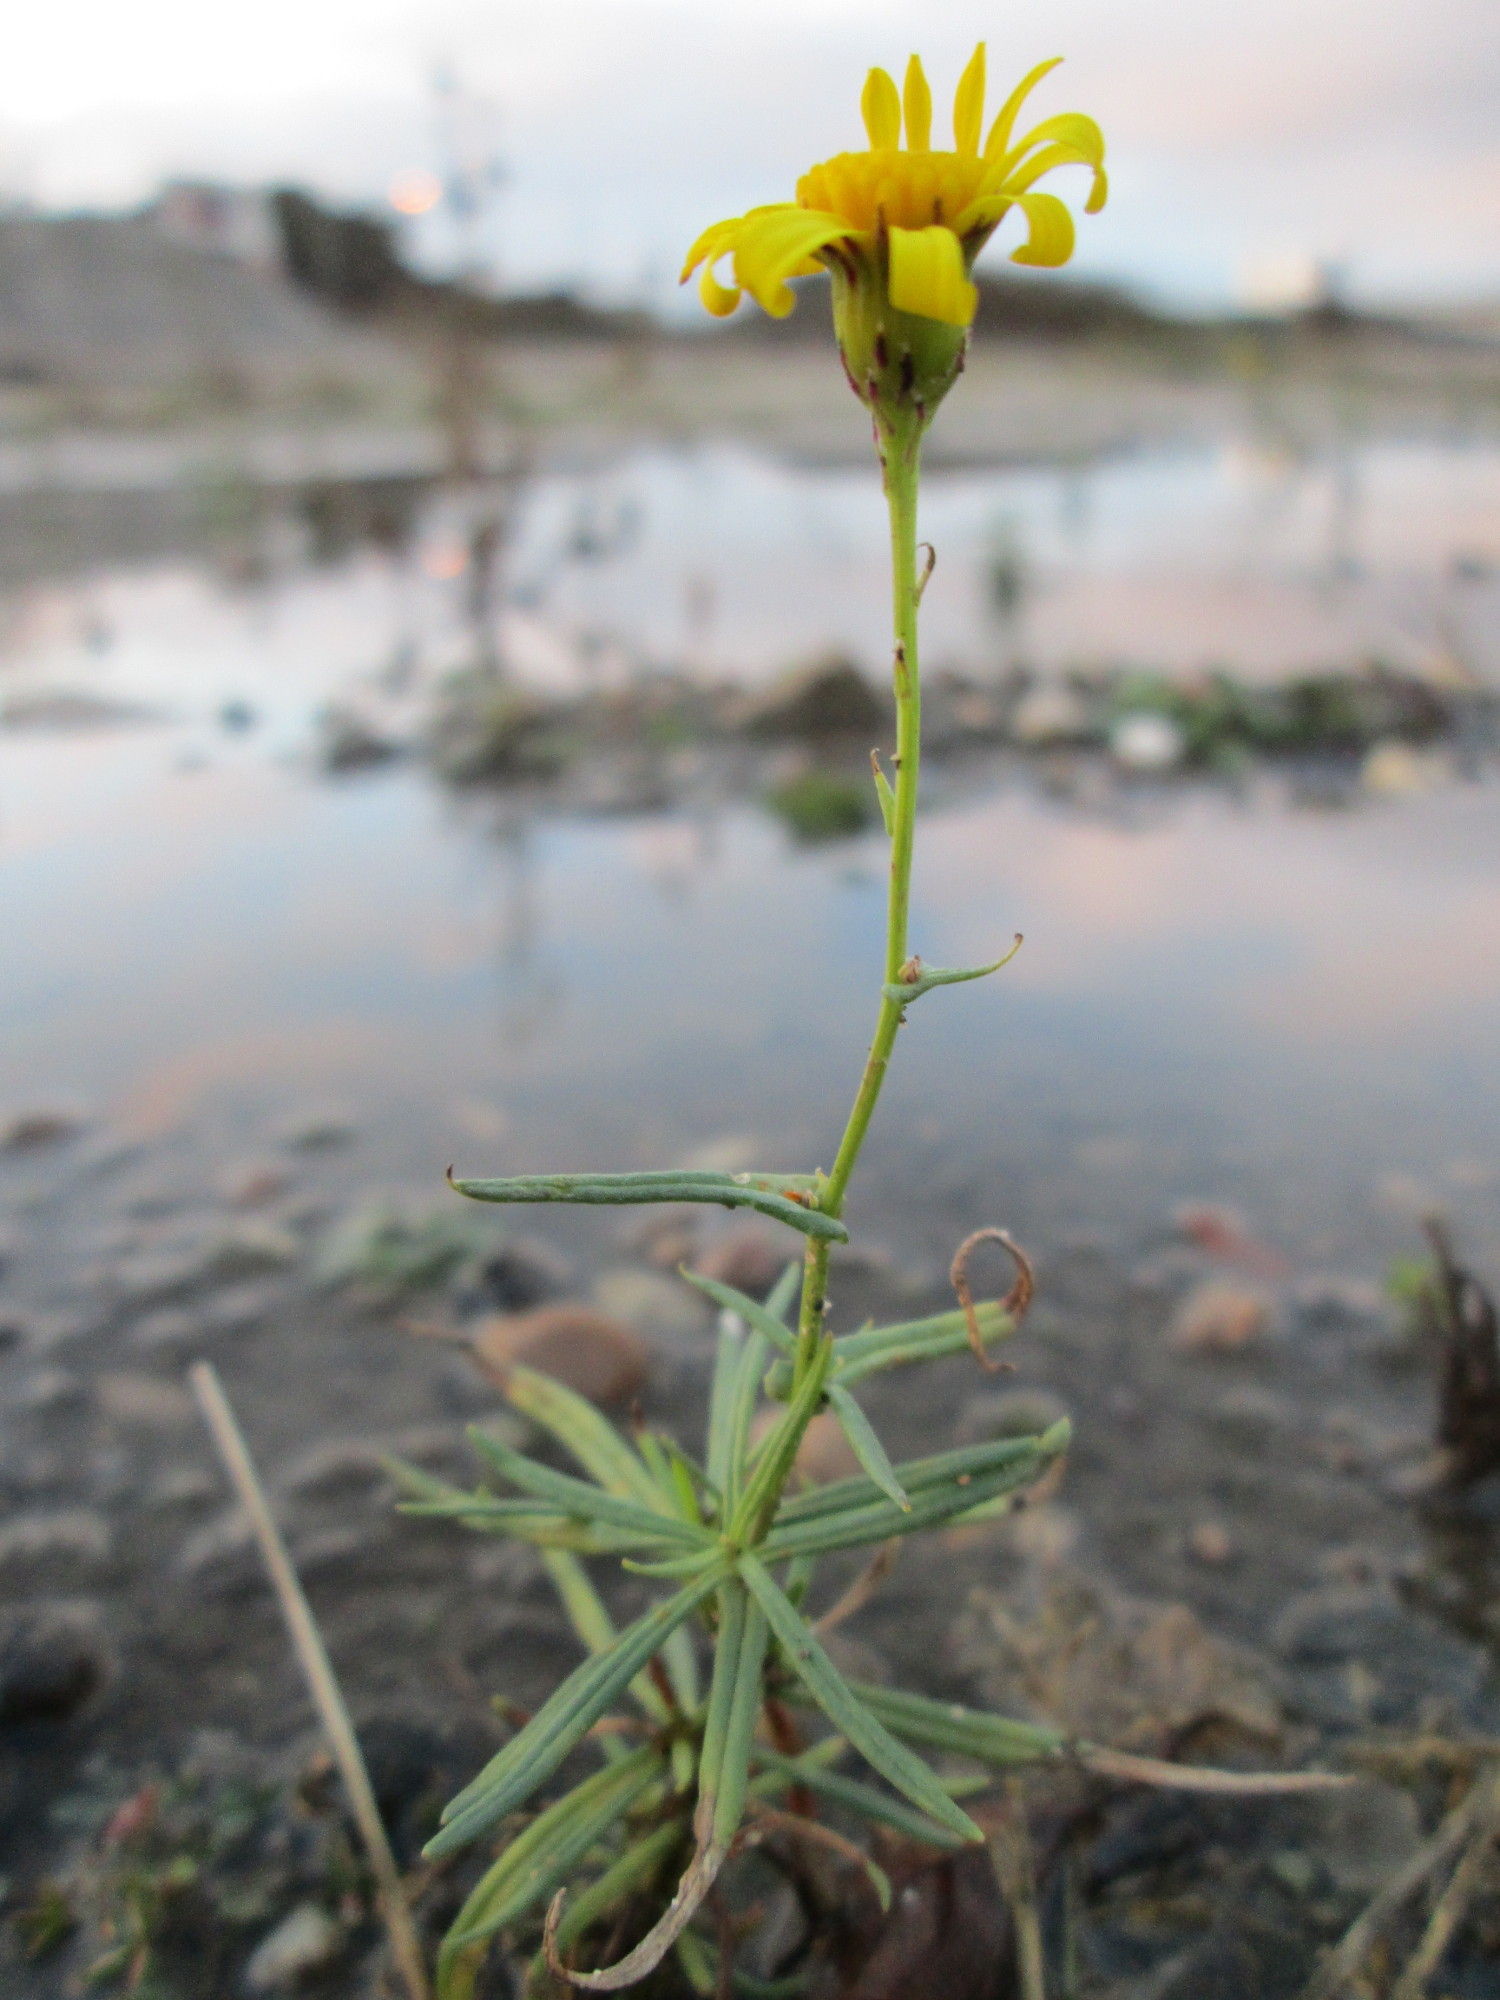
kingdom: Plantae
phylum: Tracheophyta
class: Magnoliopsida
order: Asterales
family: Asteraceae
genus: Senecio
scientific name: Senecio inaequidens
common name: Narrow-leaved ragwort
